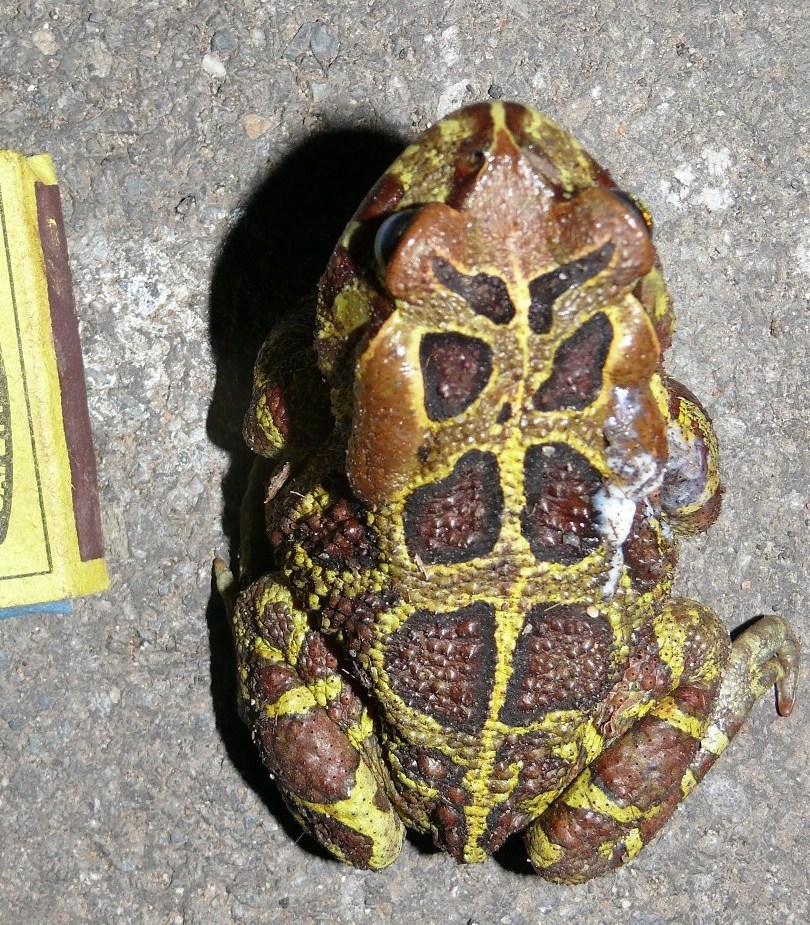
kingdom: Animalia
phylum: Chordata
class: Amphibia
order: Anura
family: Bufonidae
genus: Sclerophrys
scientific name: Sclerophrys pantherina
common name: Panther toad
